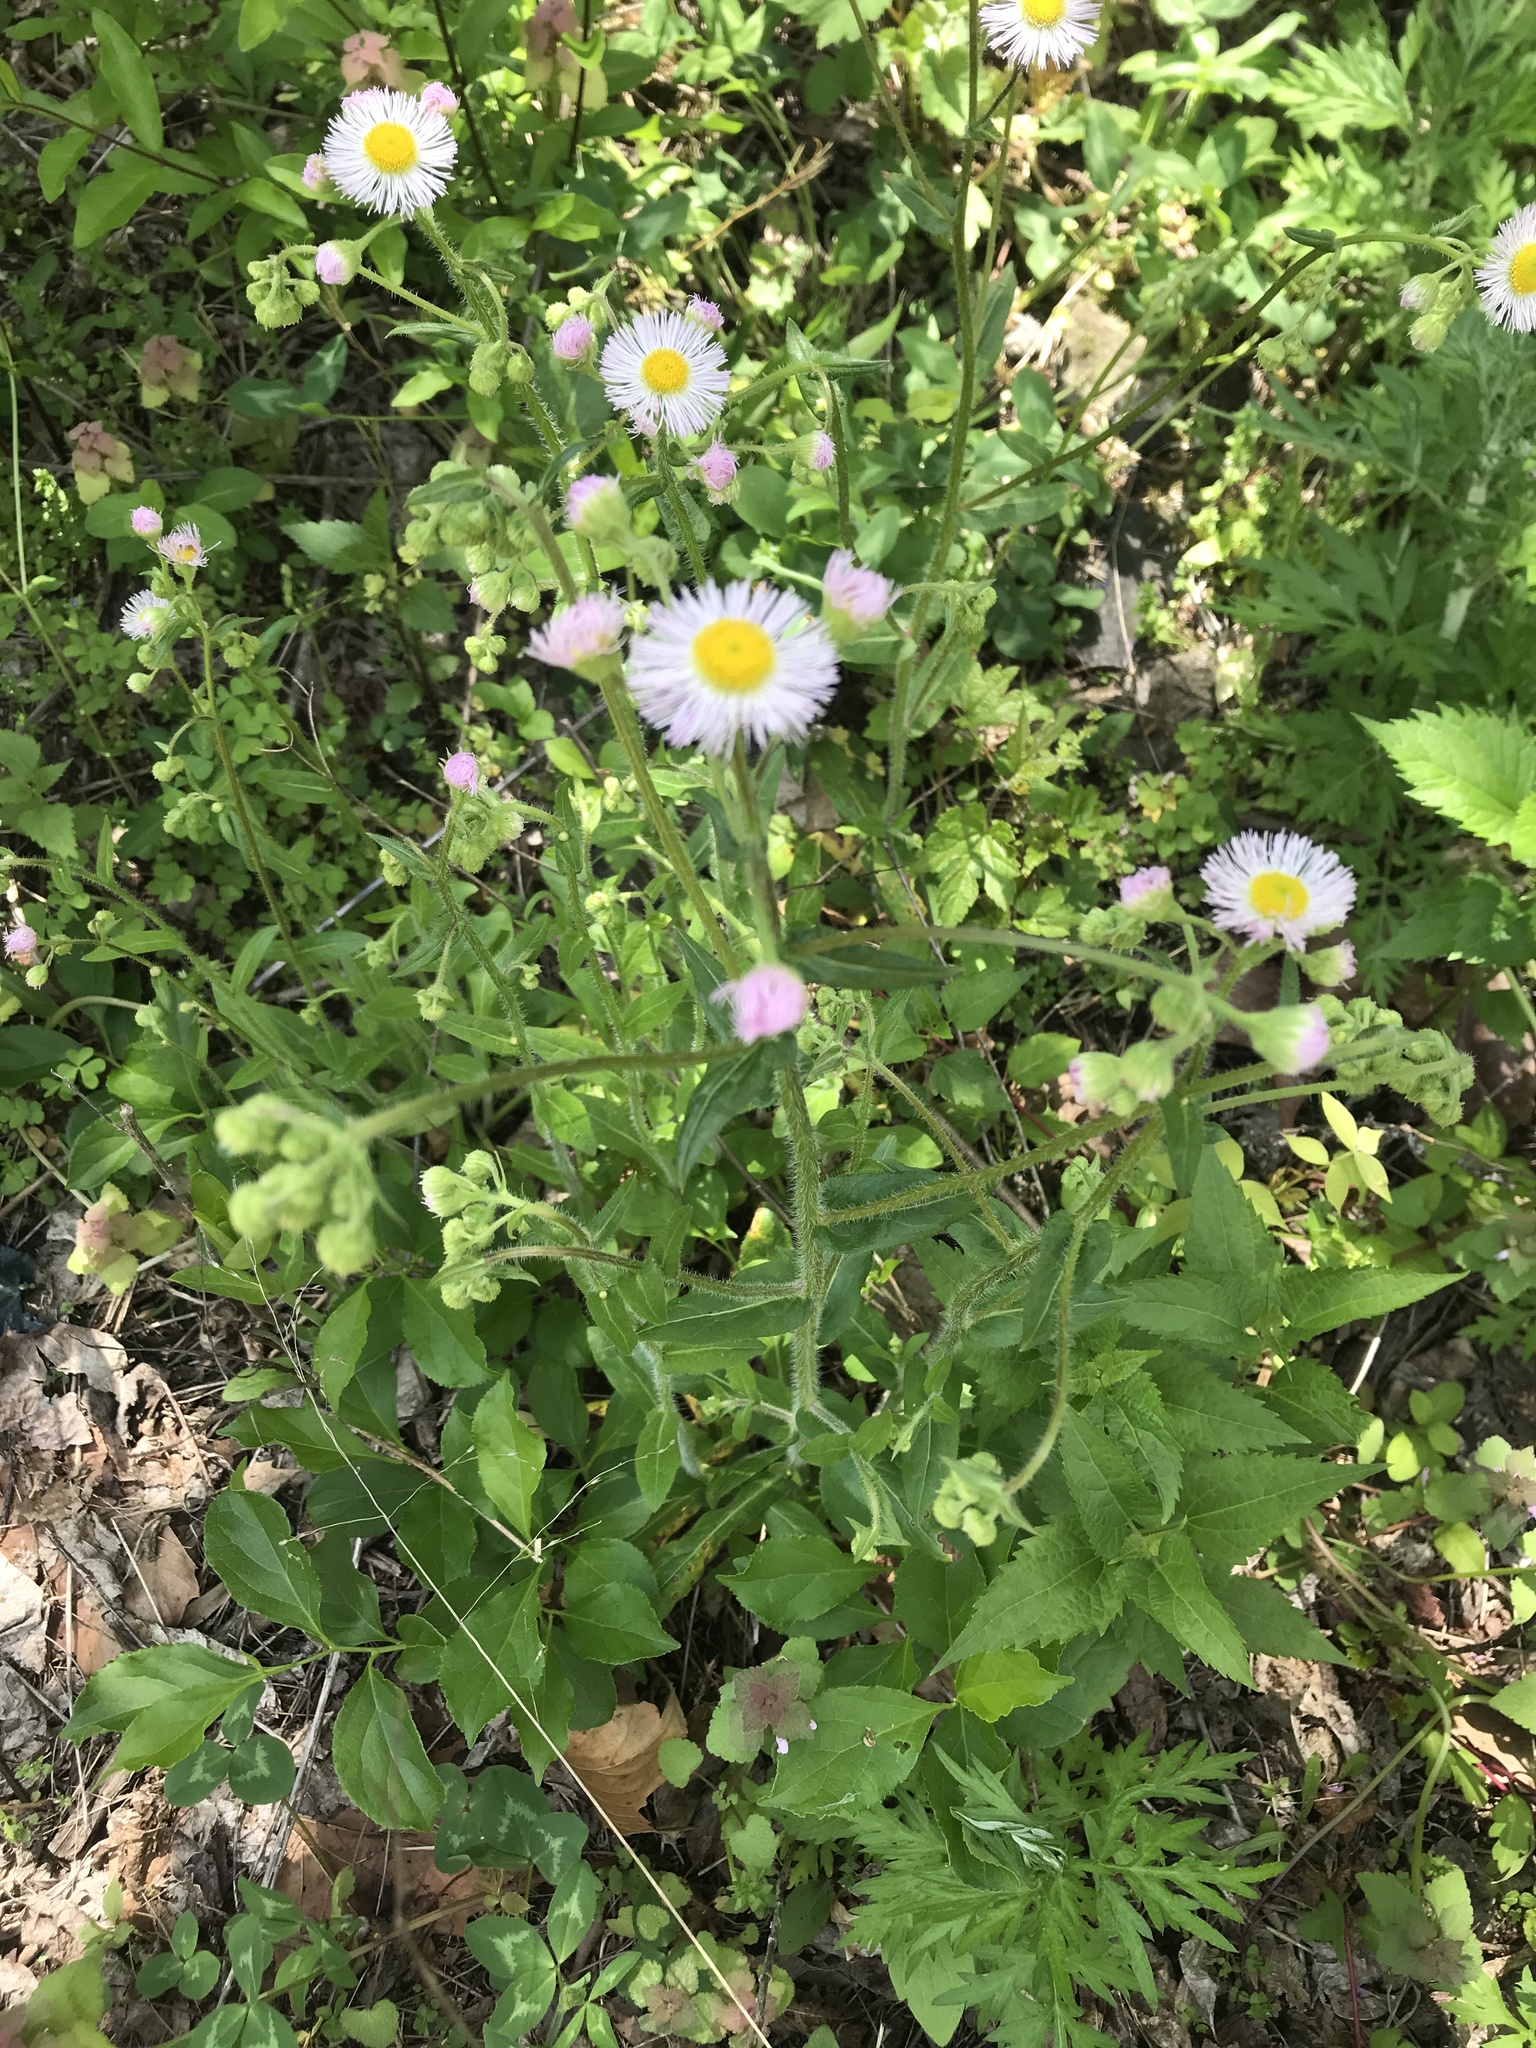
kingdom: Plantae
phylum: Tracheophyta
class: Magnoliopsida
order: Asterales
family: Asteraceae
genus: Erigeron
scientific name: Erigeron philadelphicus
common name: Robin's-plantain
